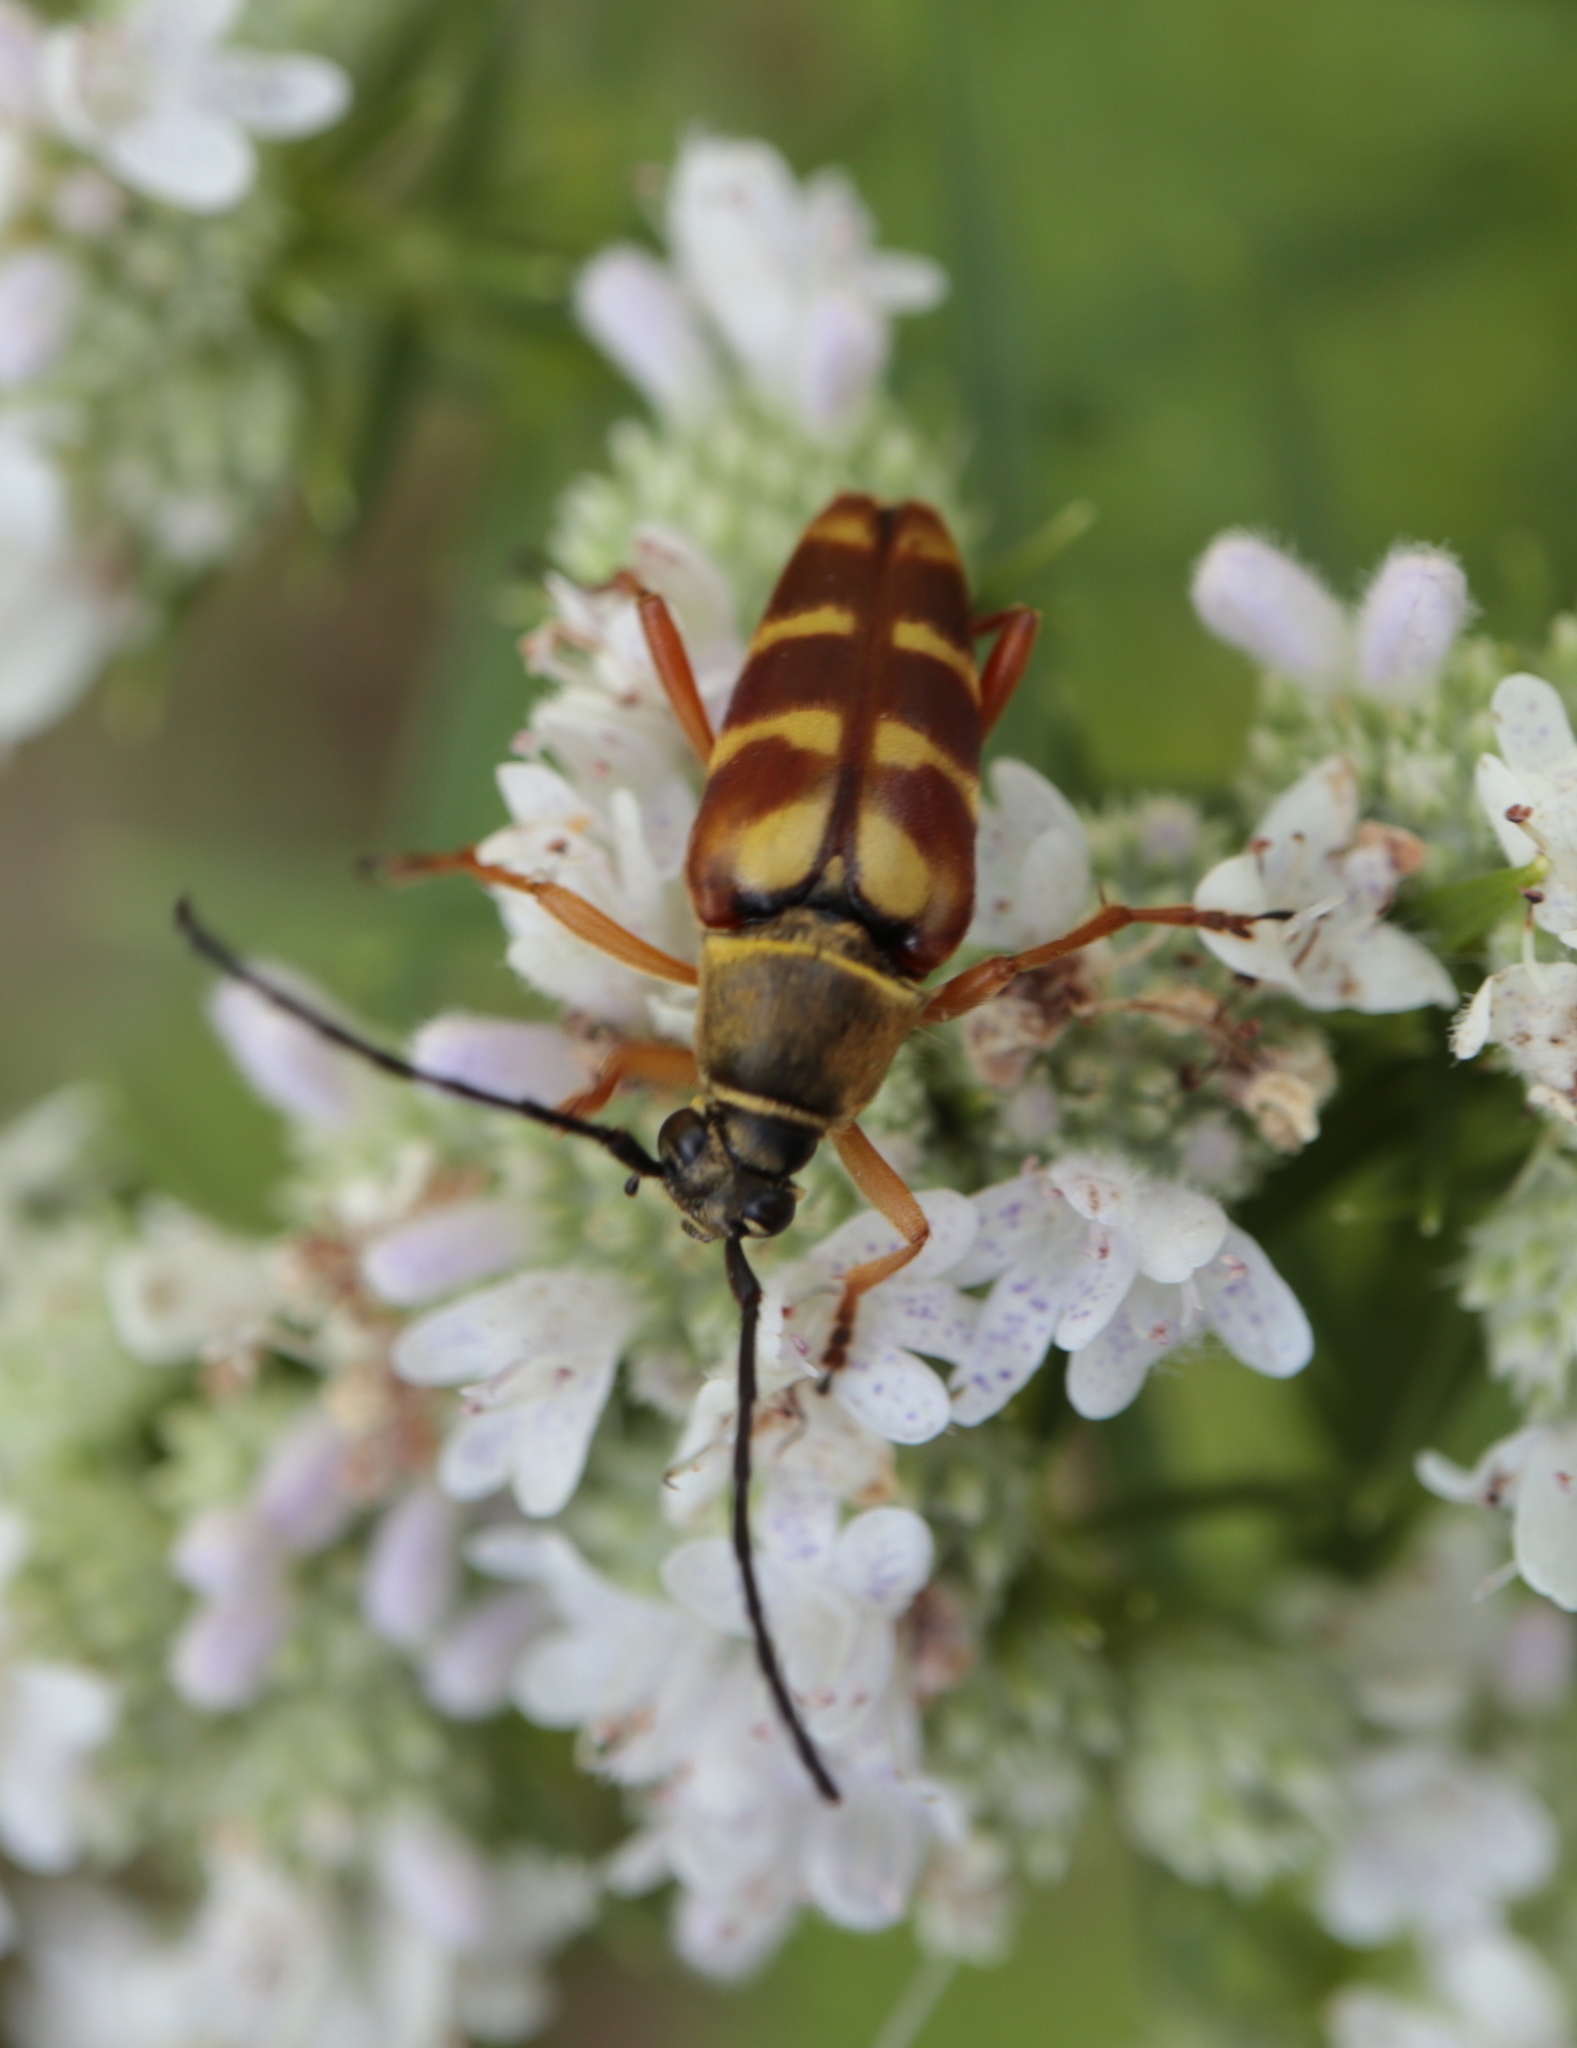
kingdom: Animalia
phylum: Arthropoda
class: Insecta
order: Coleoptera
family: Cerambycidae
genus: Typocerus
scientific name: Typocerus velutinus
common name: Banded longhorn beetle
